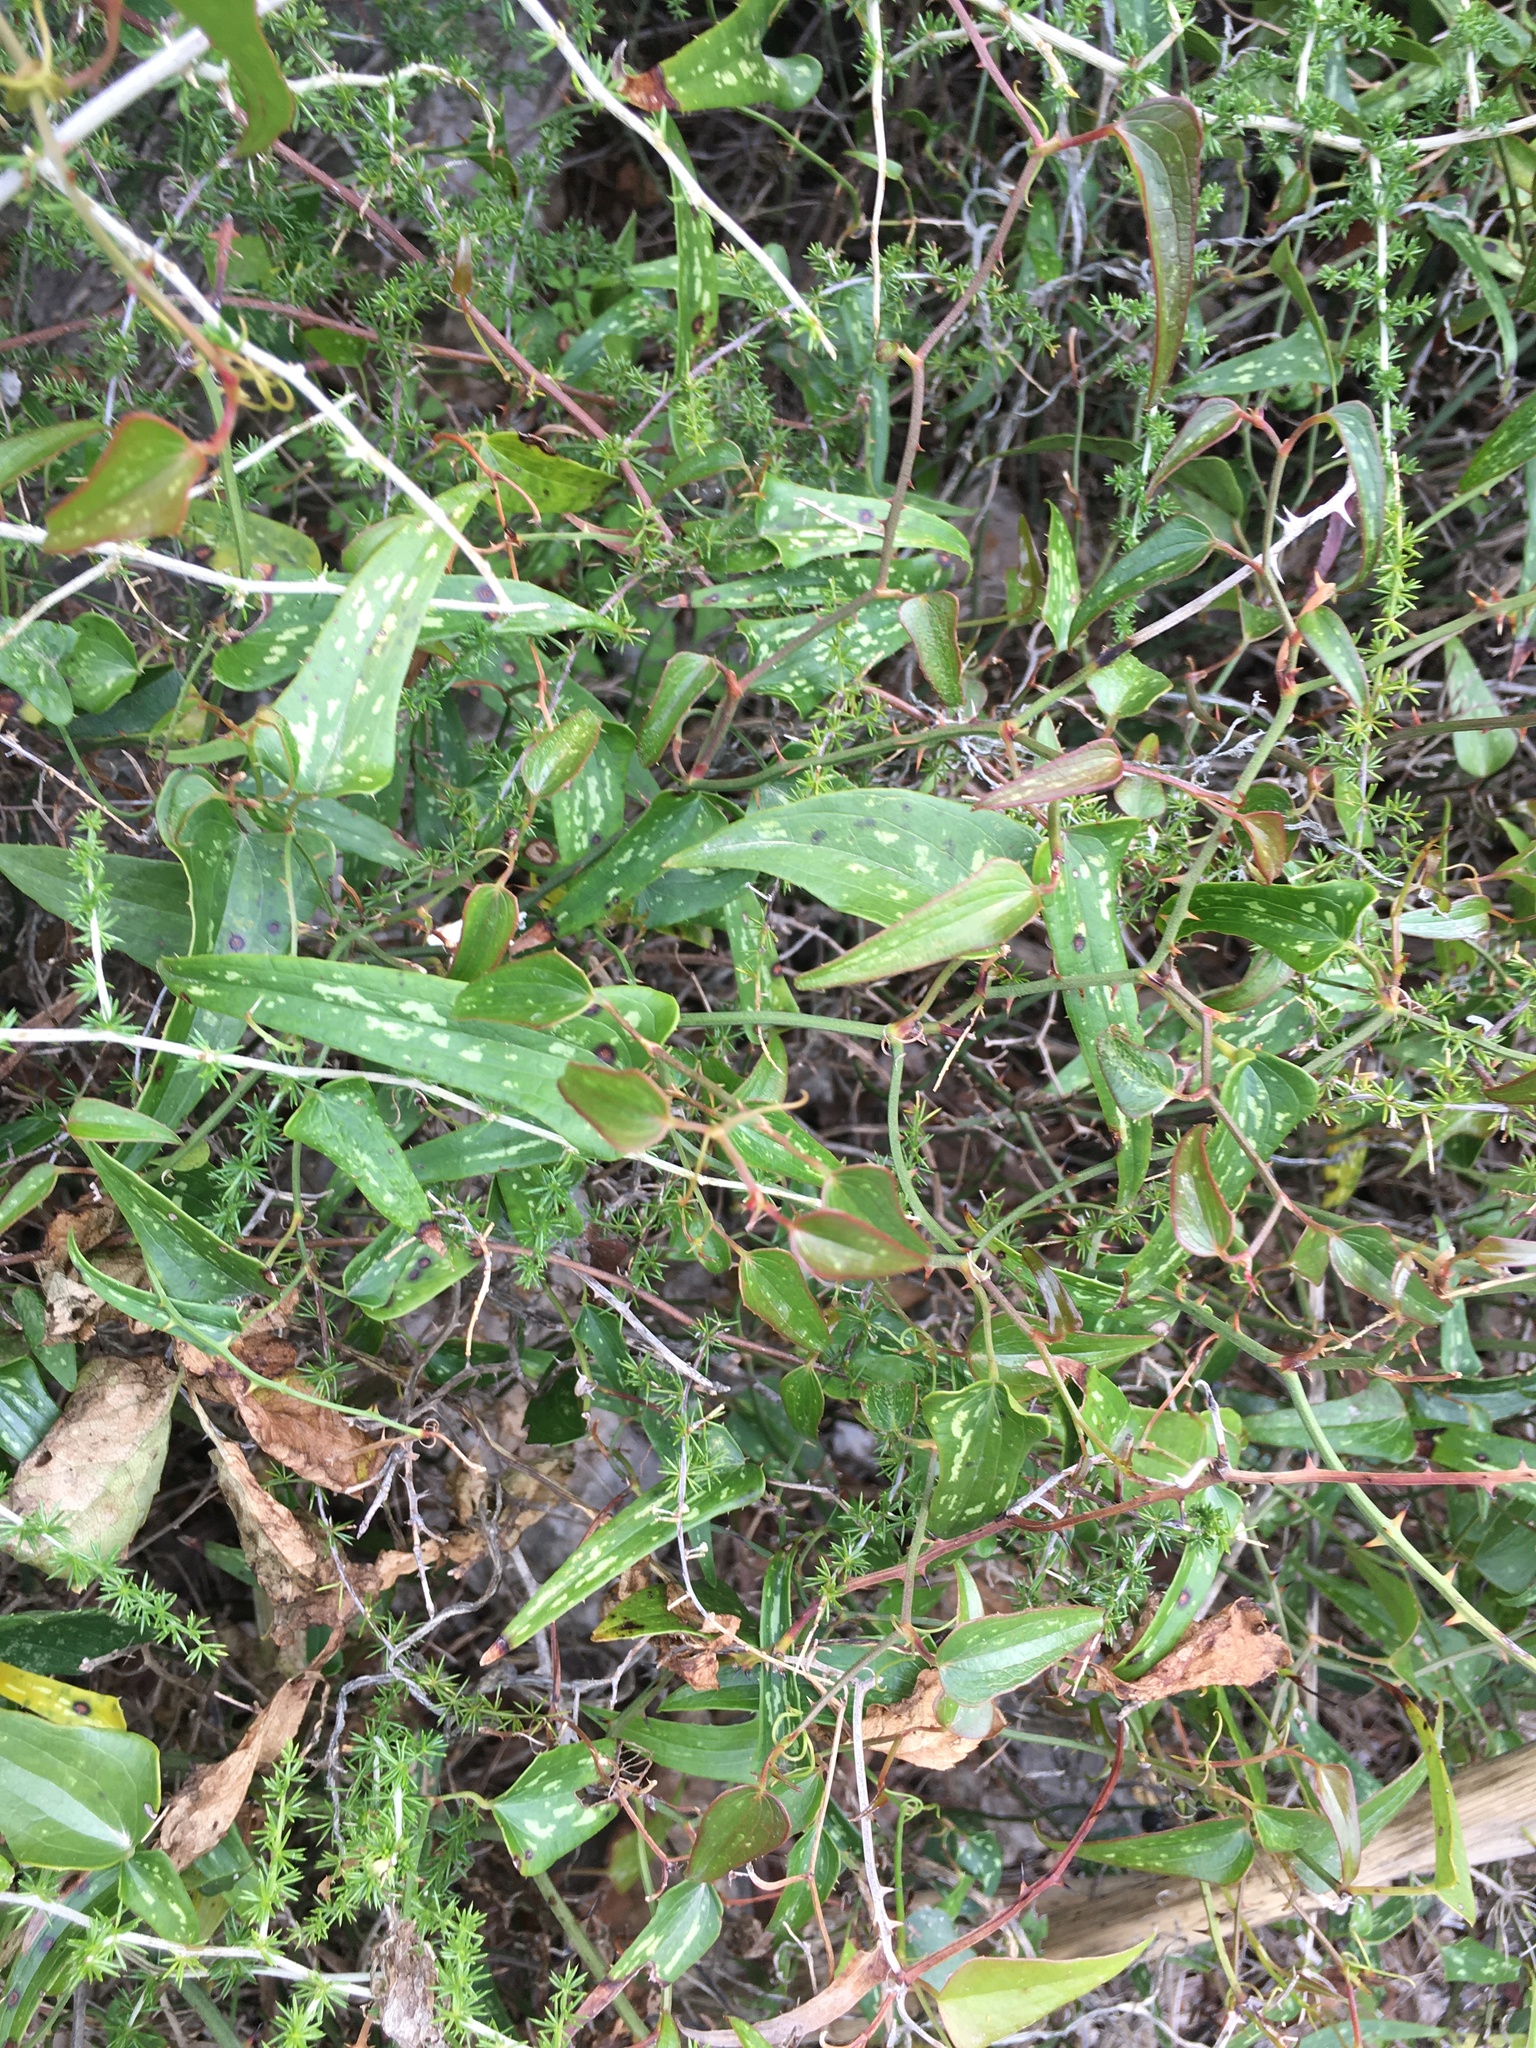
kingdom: Plantae
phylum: Tracheophyta
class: Liliopsida
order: Liliales
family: Smilacaceae
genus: Smilax
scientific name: Smilax aspera
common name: Common smilax
